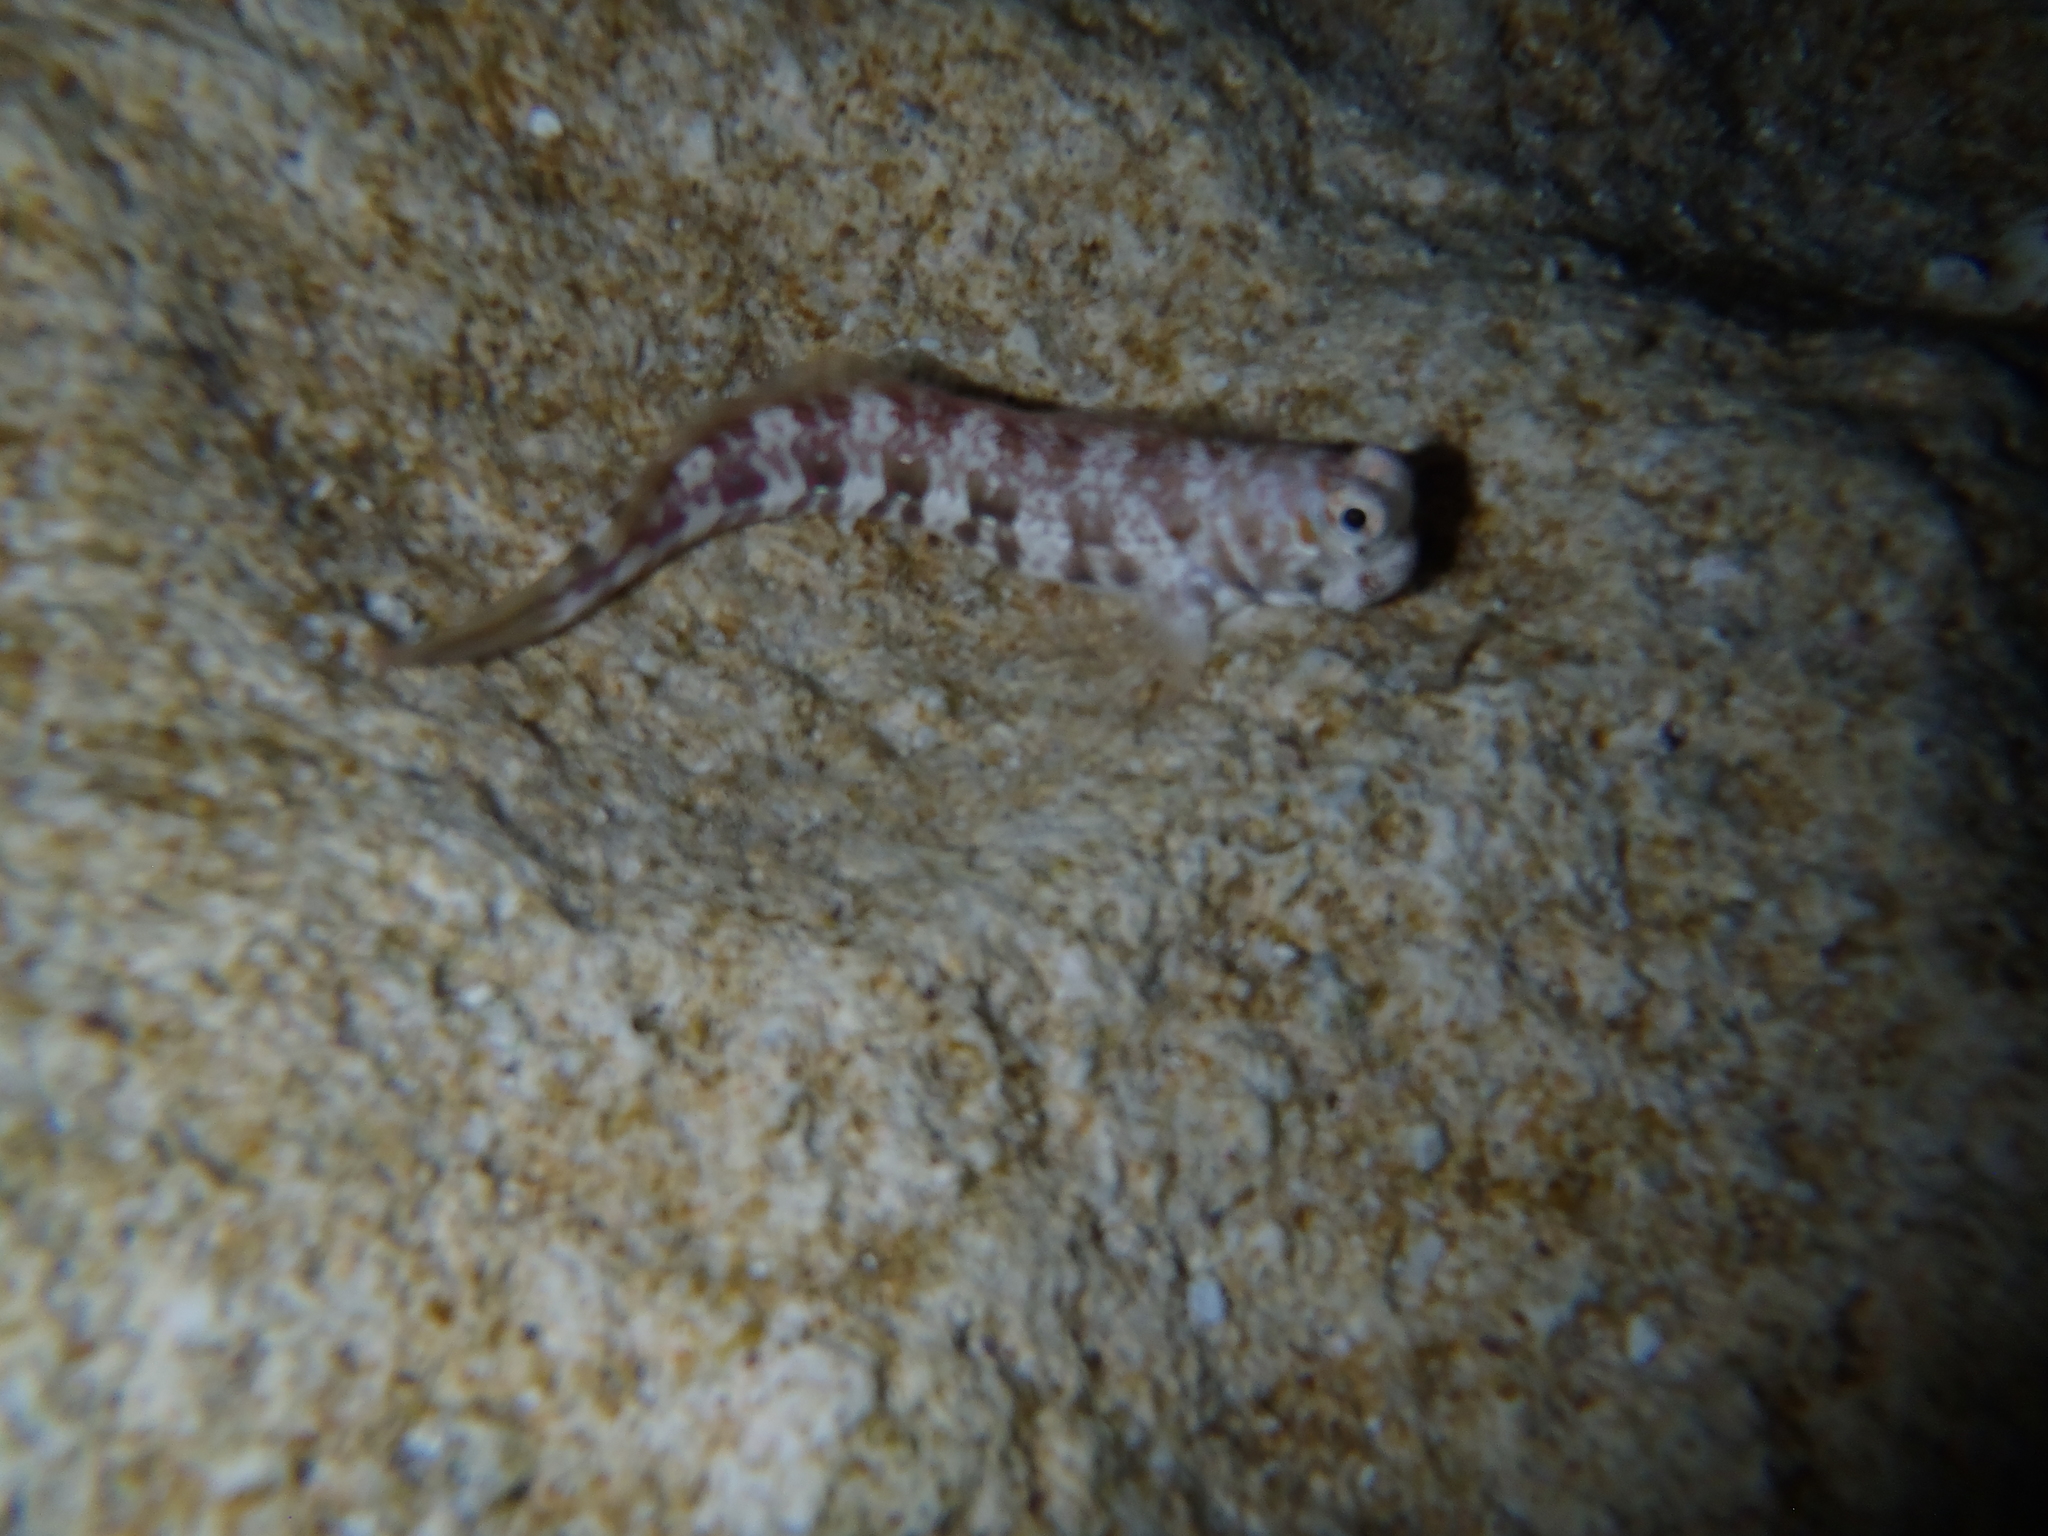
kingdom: Animalia
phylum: Chordata
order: Perciformes
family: Blenniidae
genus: Blenniella
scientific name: Blenniella paula
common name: Blue-dashed rockskipper
